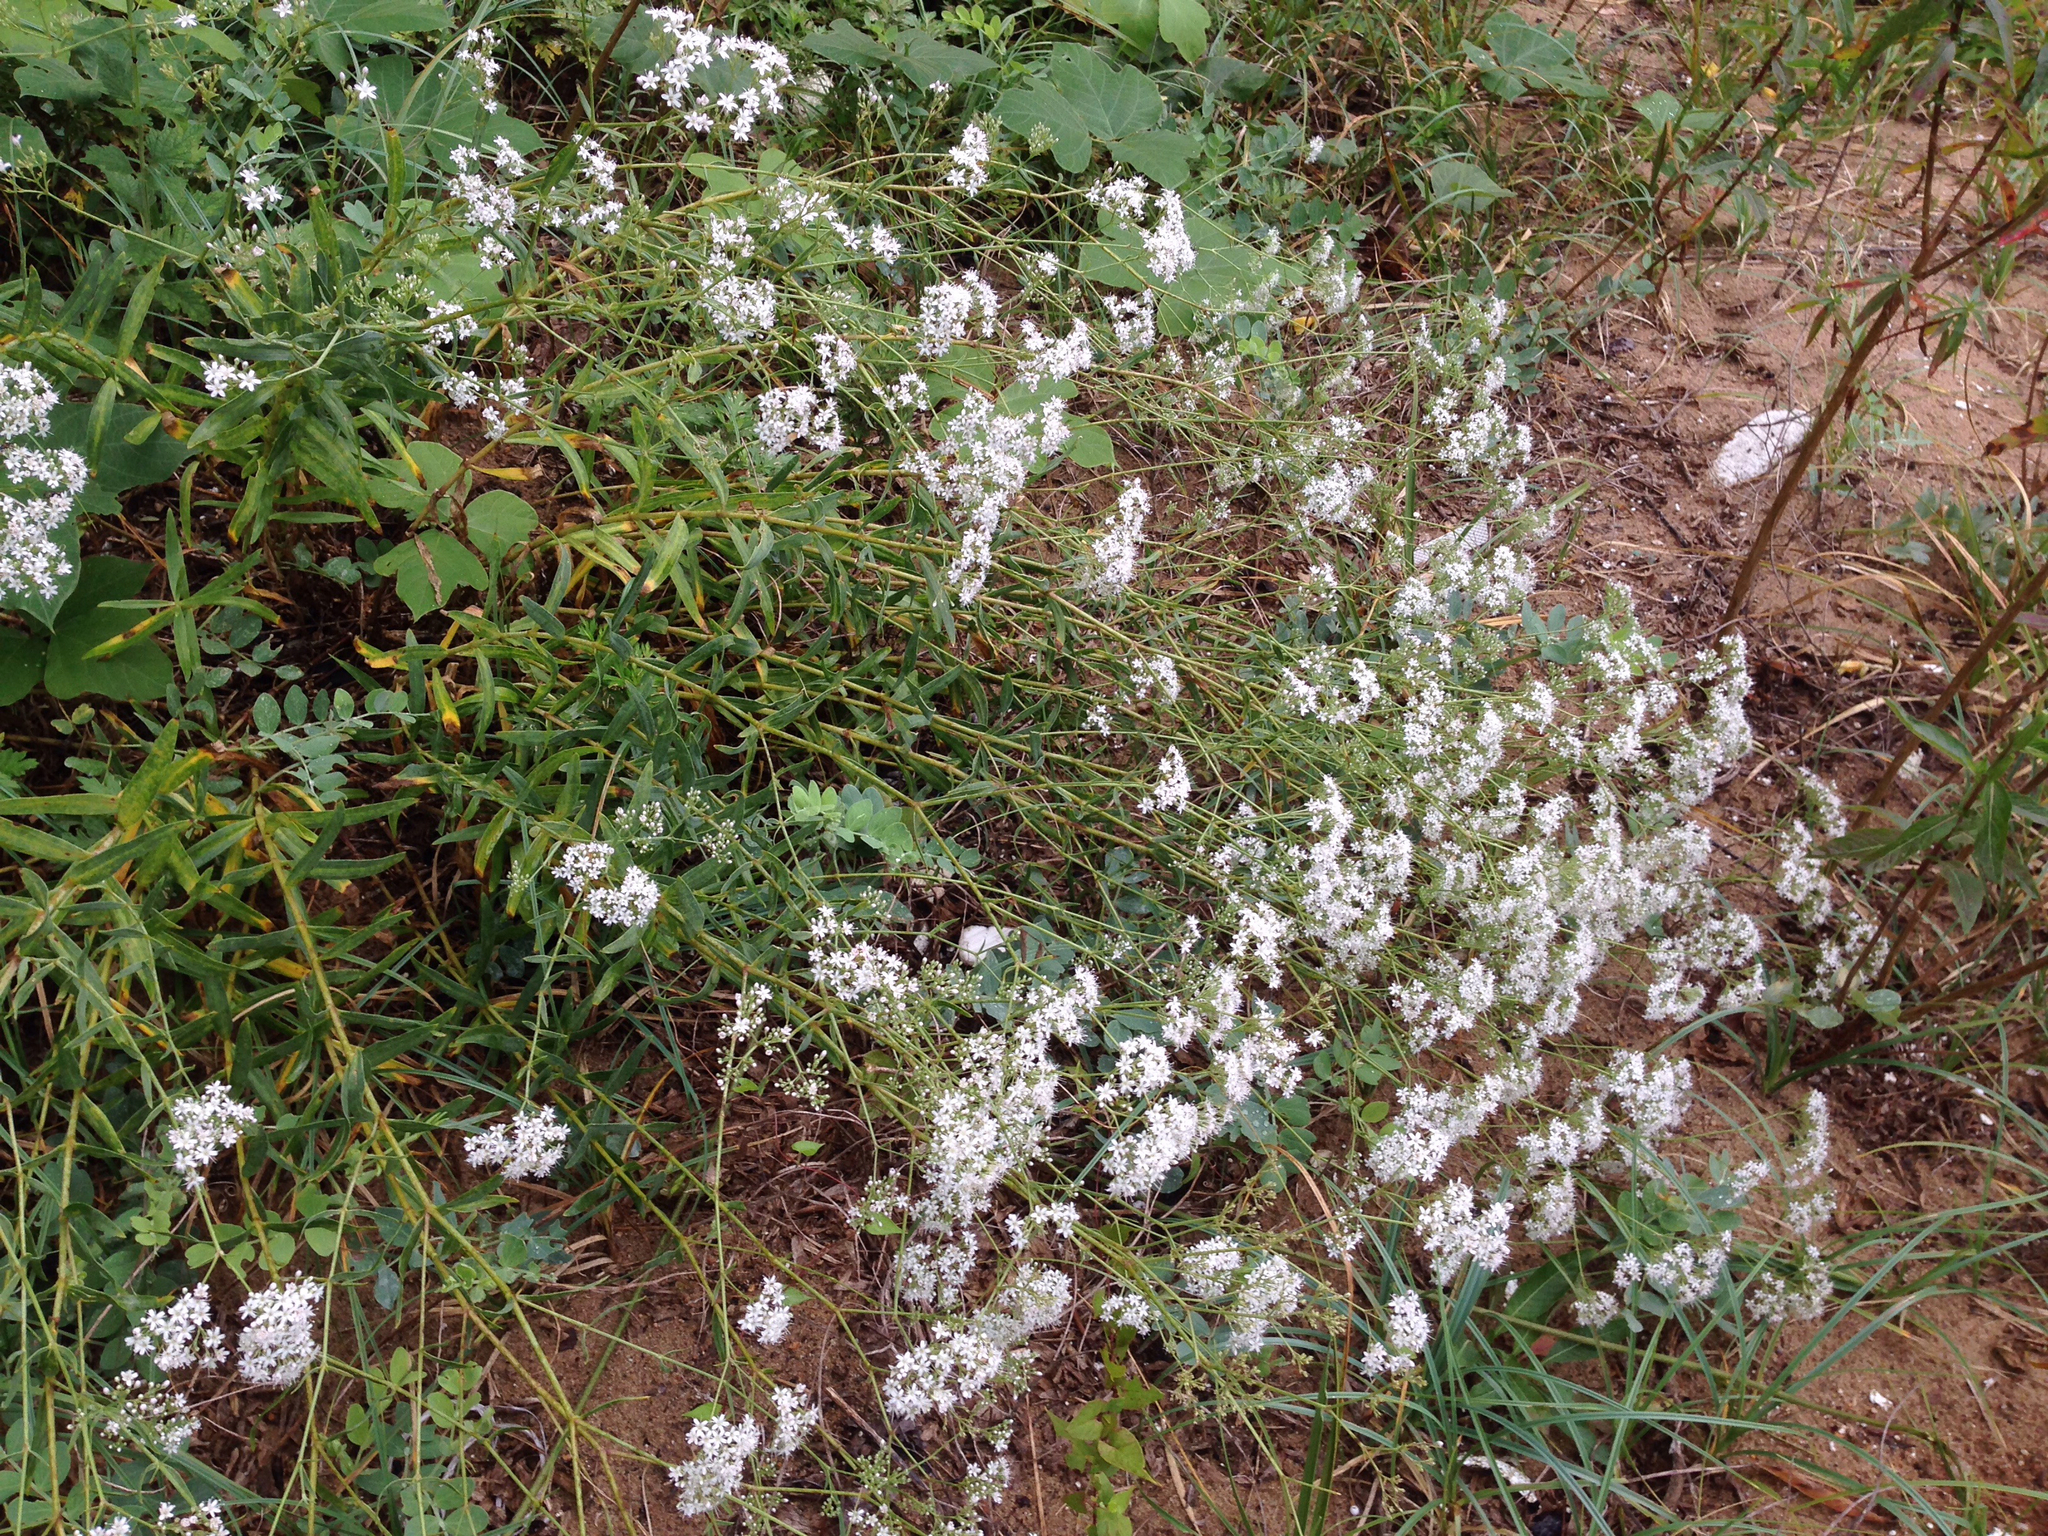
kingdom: Plantae
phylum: Tracheophyta
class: Magnoliopsida
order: Caryophyllales
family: Caryophyllaceae
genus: Gypsophila
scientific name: Gypsophila oldhamiana
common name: Oldham's baby's-breath
